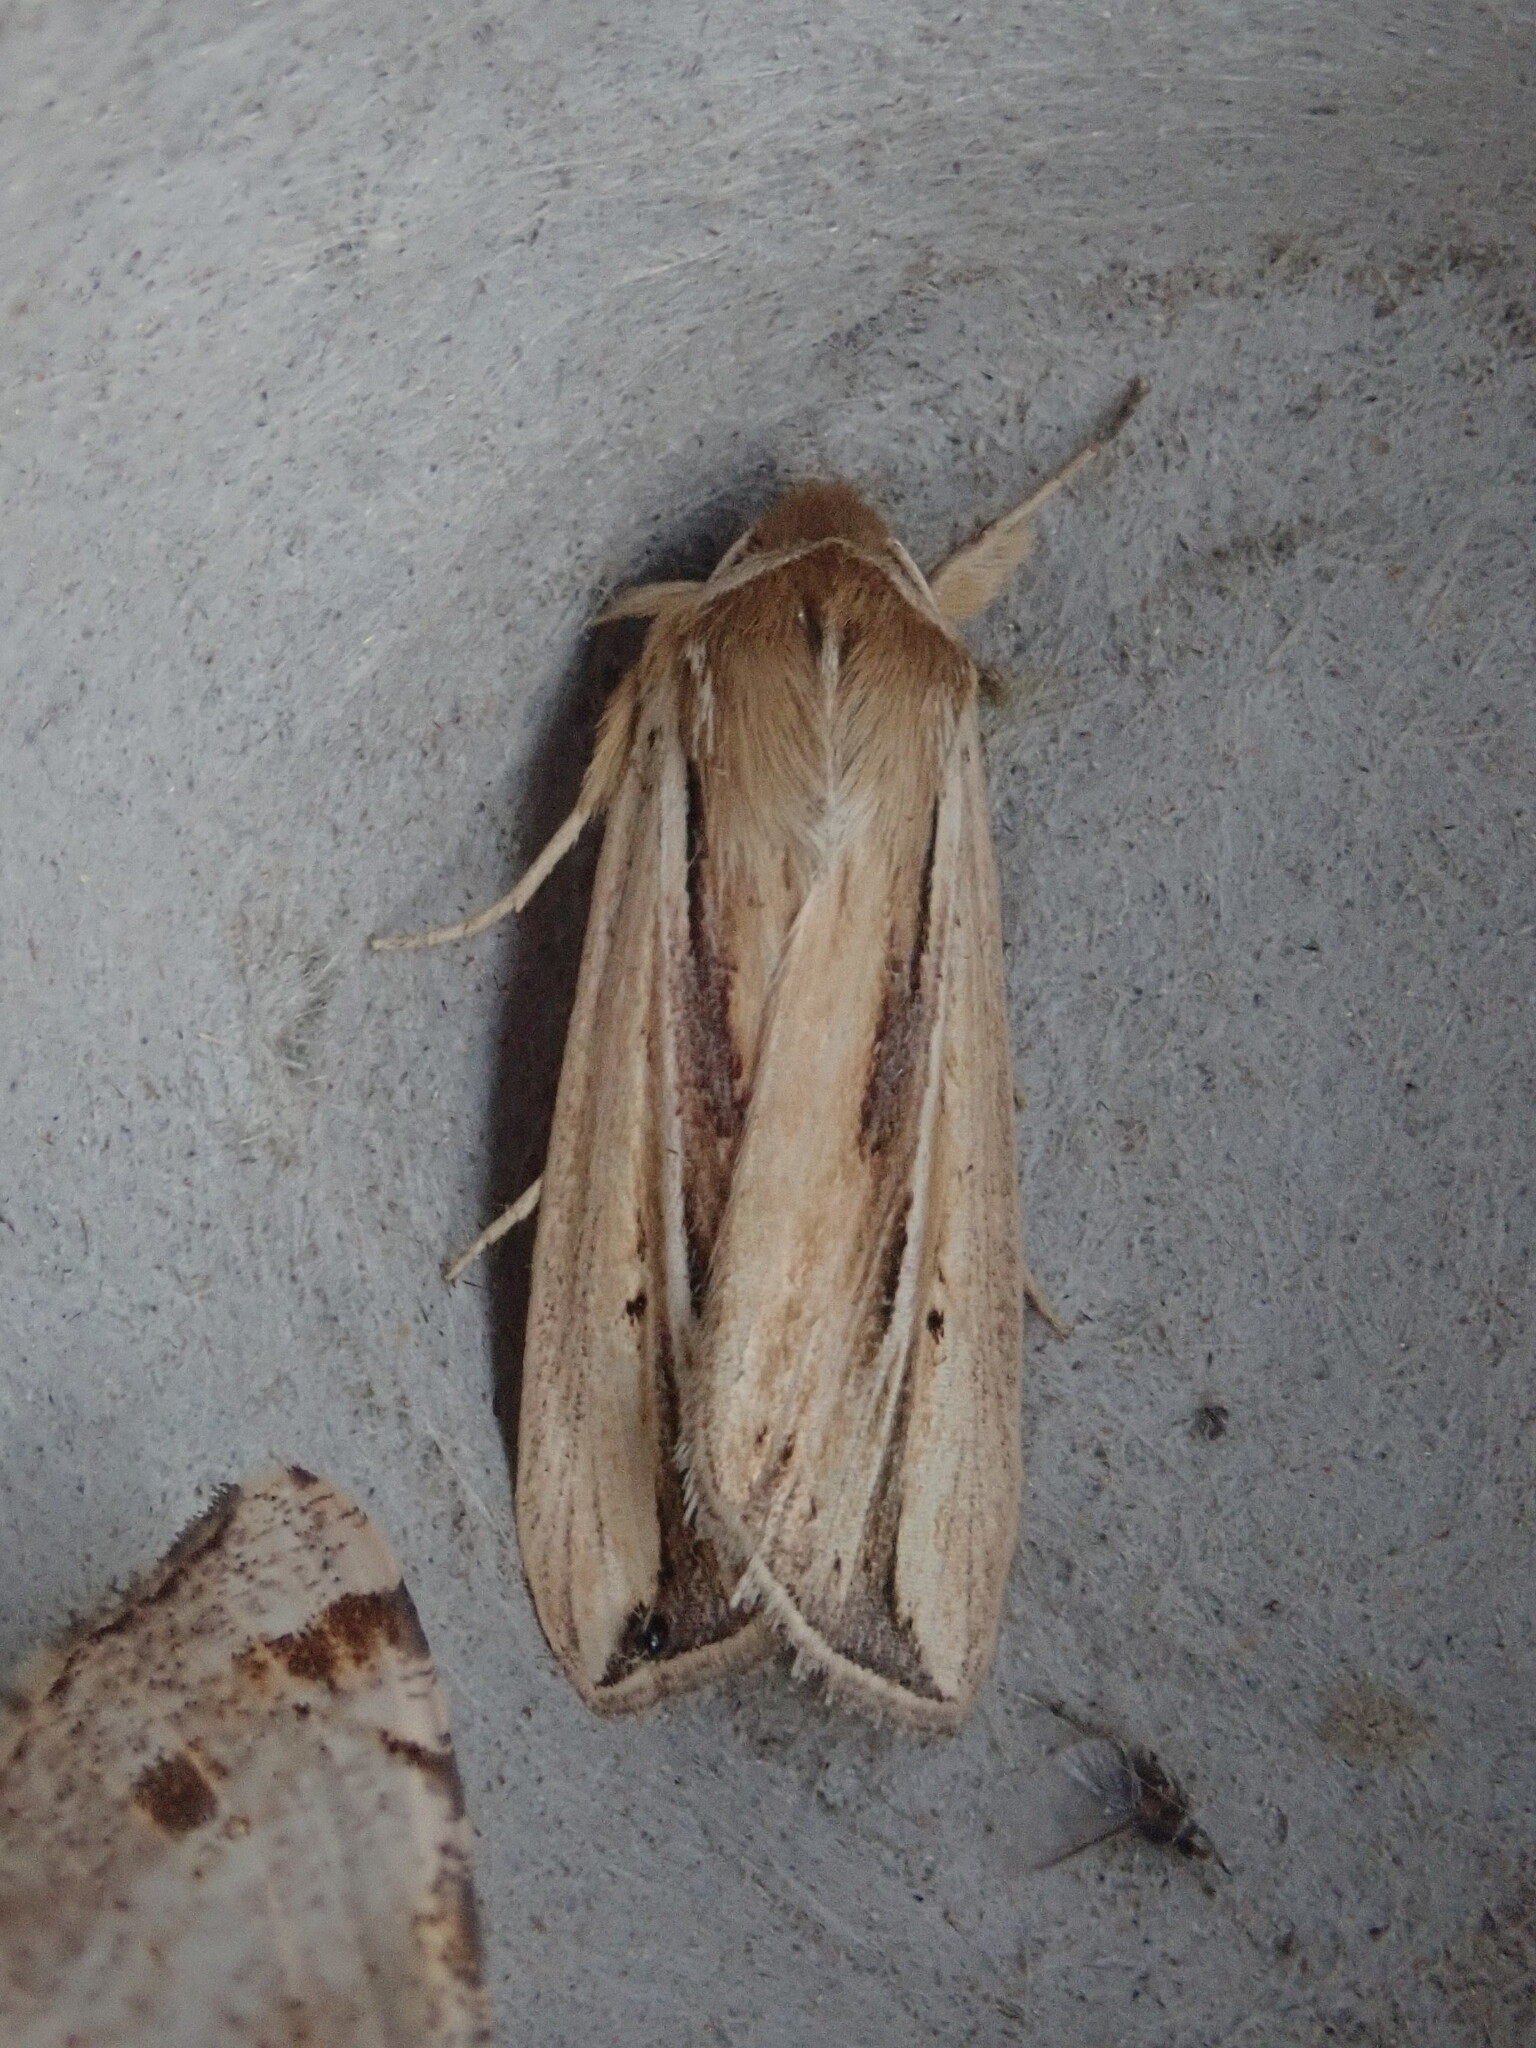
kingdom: Animalia
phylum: Arthropoda
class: Insecta
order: Lepidoptera
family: Noctuidae
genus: Dargida
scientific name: Dargida diffusa
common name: Wheat head armyworm
